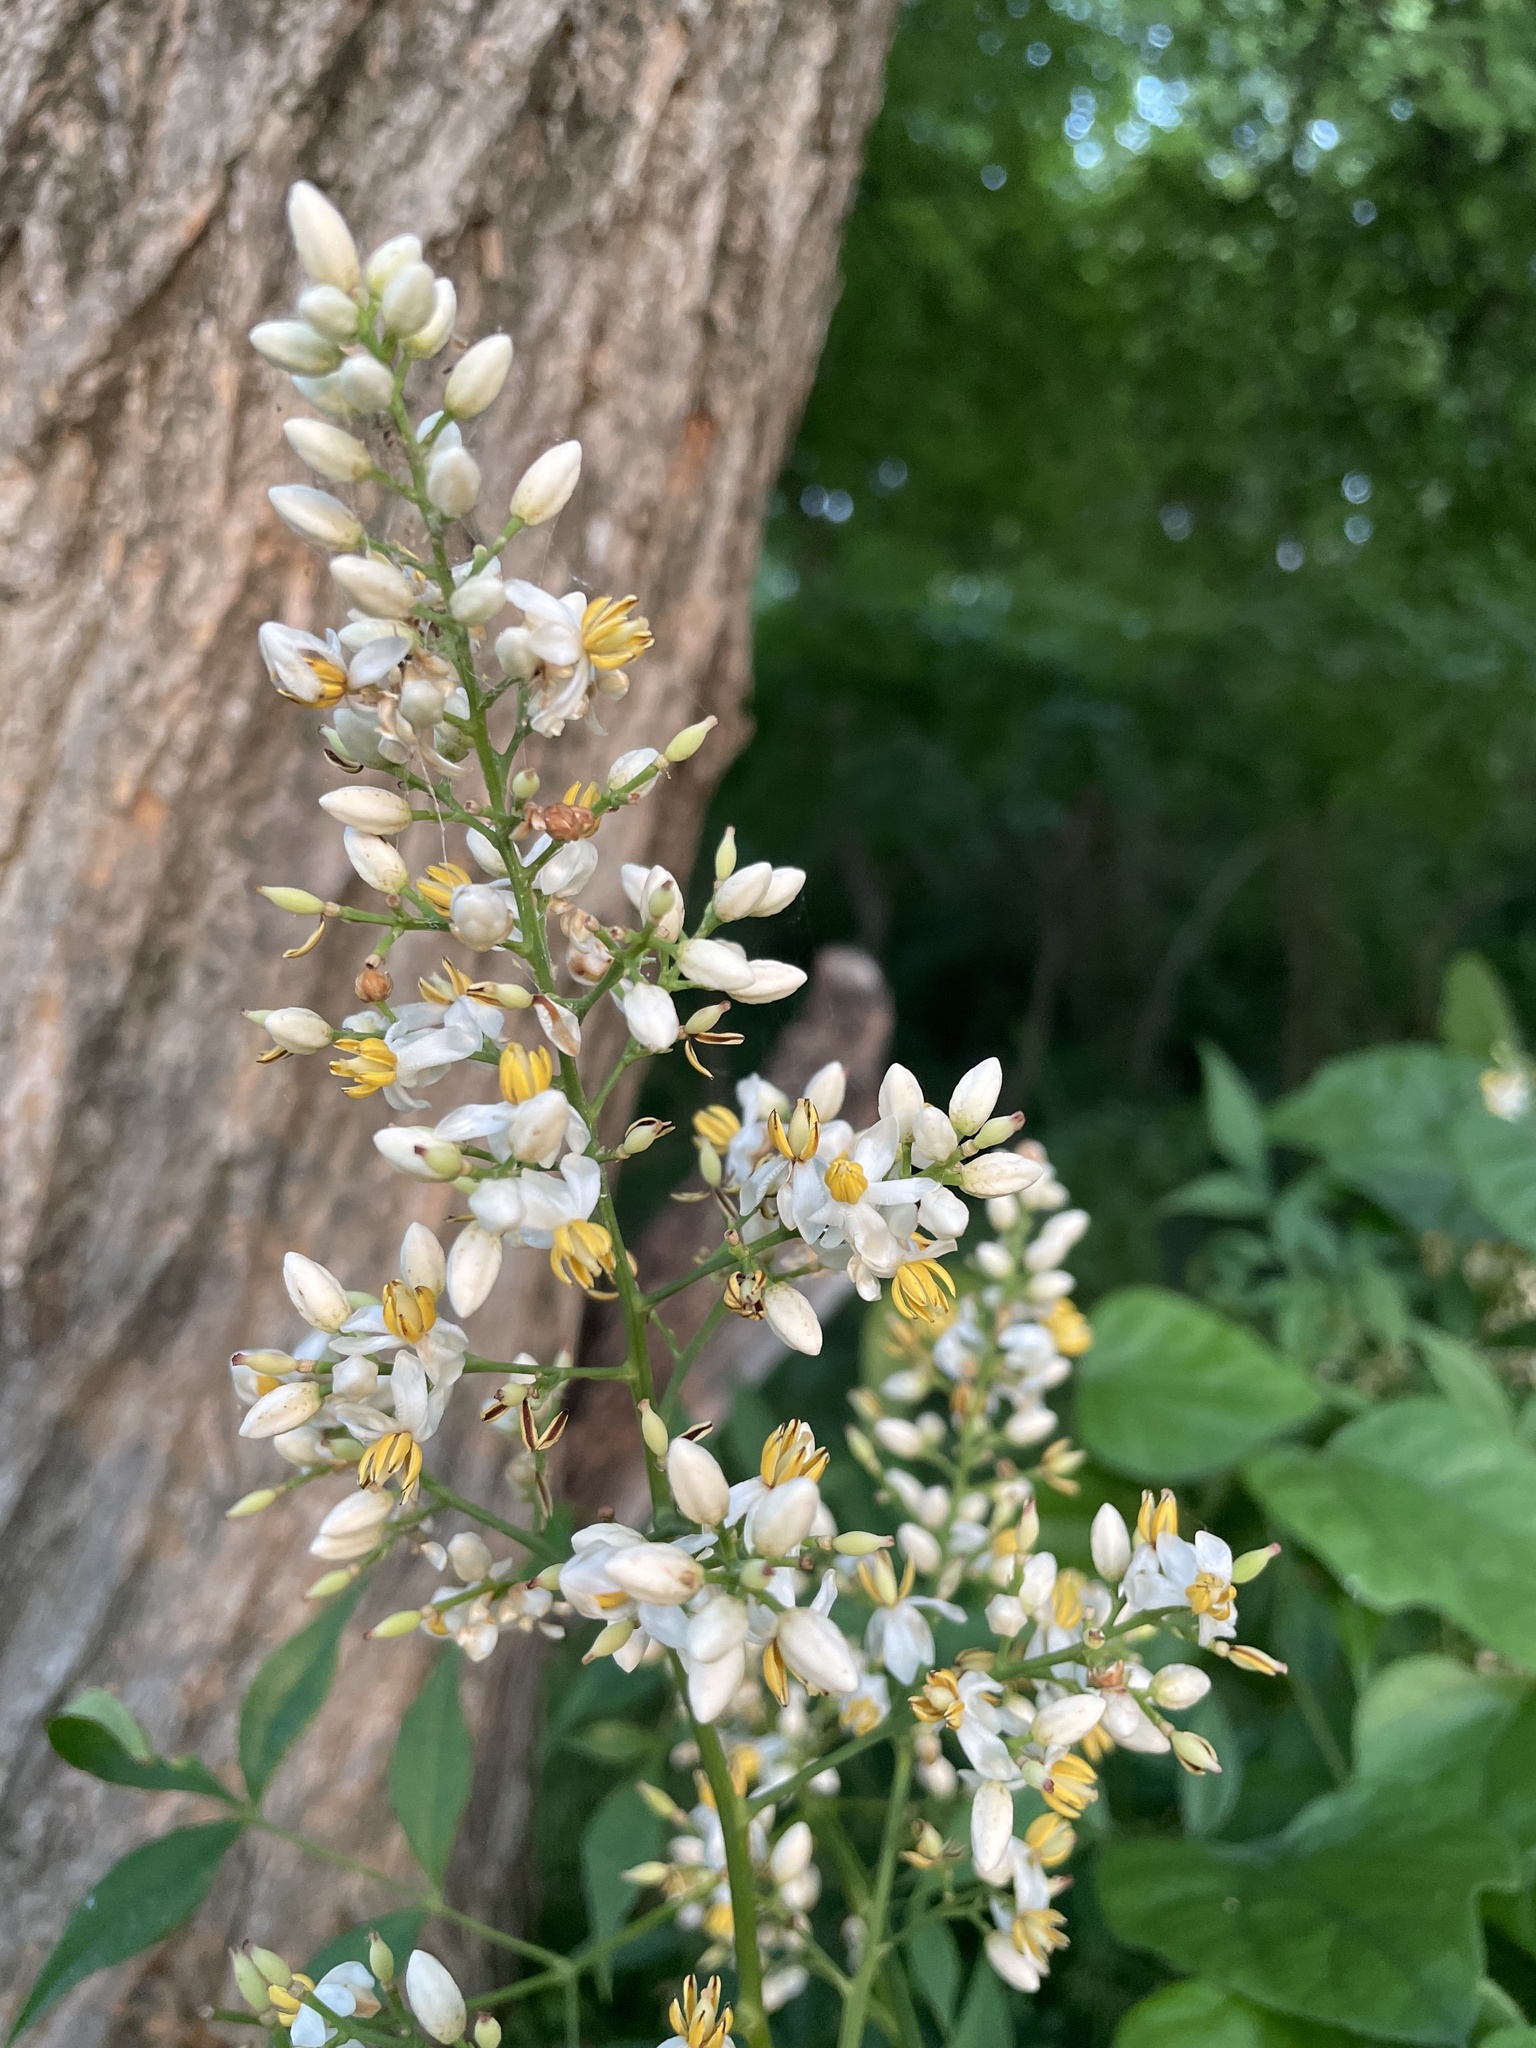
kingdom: Plantae
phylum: Tracheophyta
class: Magnoliopsida
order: Ranunculales
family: Berberidaceae
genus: Nandina
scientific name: Nandina domestica
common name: Sacred bamboo
